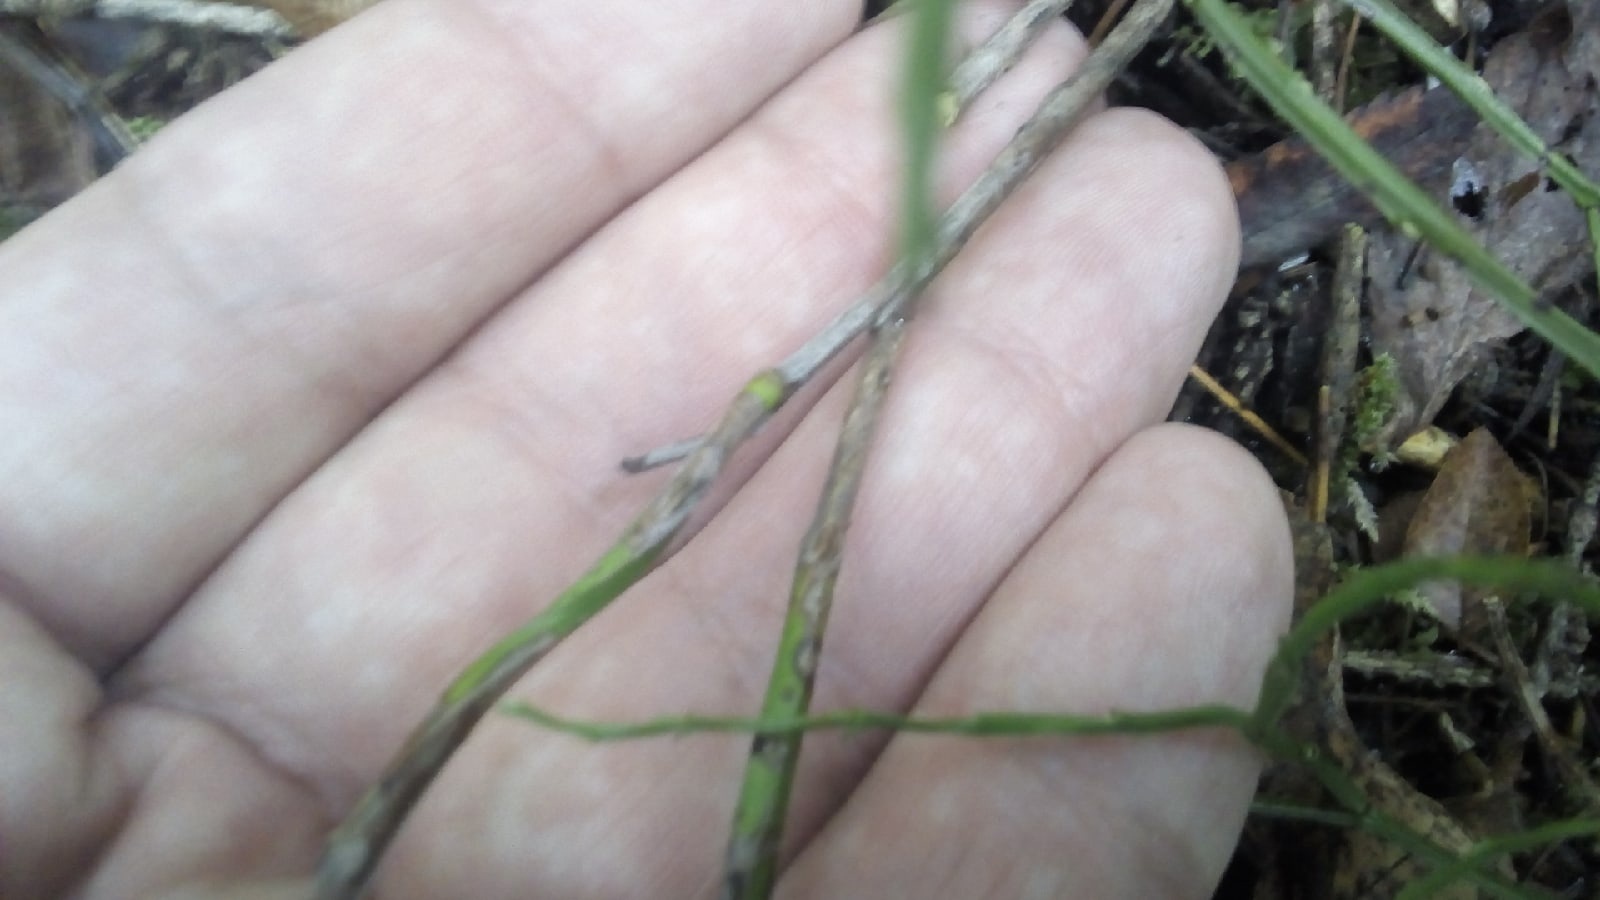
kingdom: Plantae
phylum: Tracheophyta
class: Magnoliopsida
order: Ericales
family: Ericaceae
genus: Vaccinium
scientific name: Vaccinium myrtillus
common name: Bilberry
